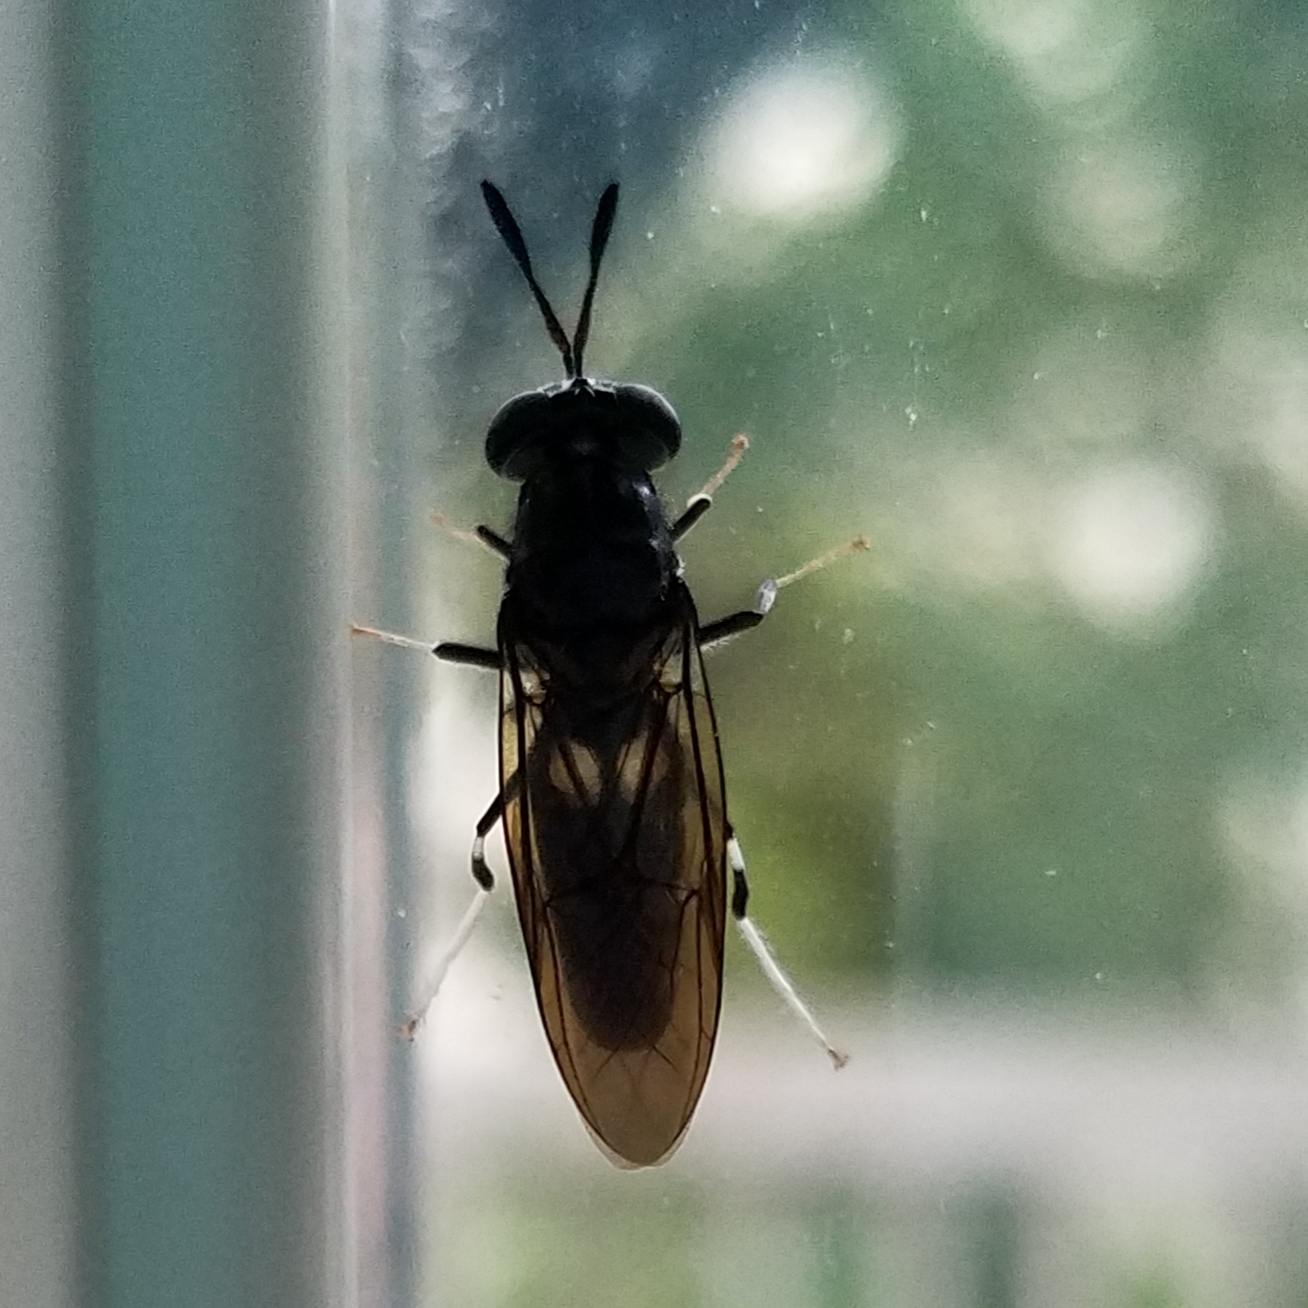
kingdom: Animalia
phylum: Arthropoda
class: Insecta
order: Diptera
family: Stratiomyidae
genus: Hermetia
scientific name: Hermetia illucens
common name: Black soldier fly
